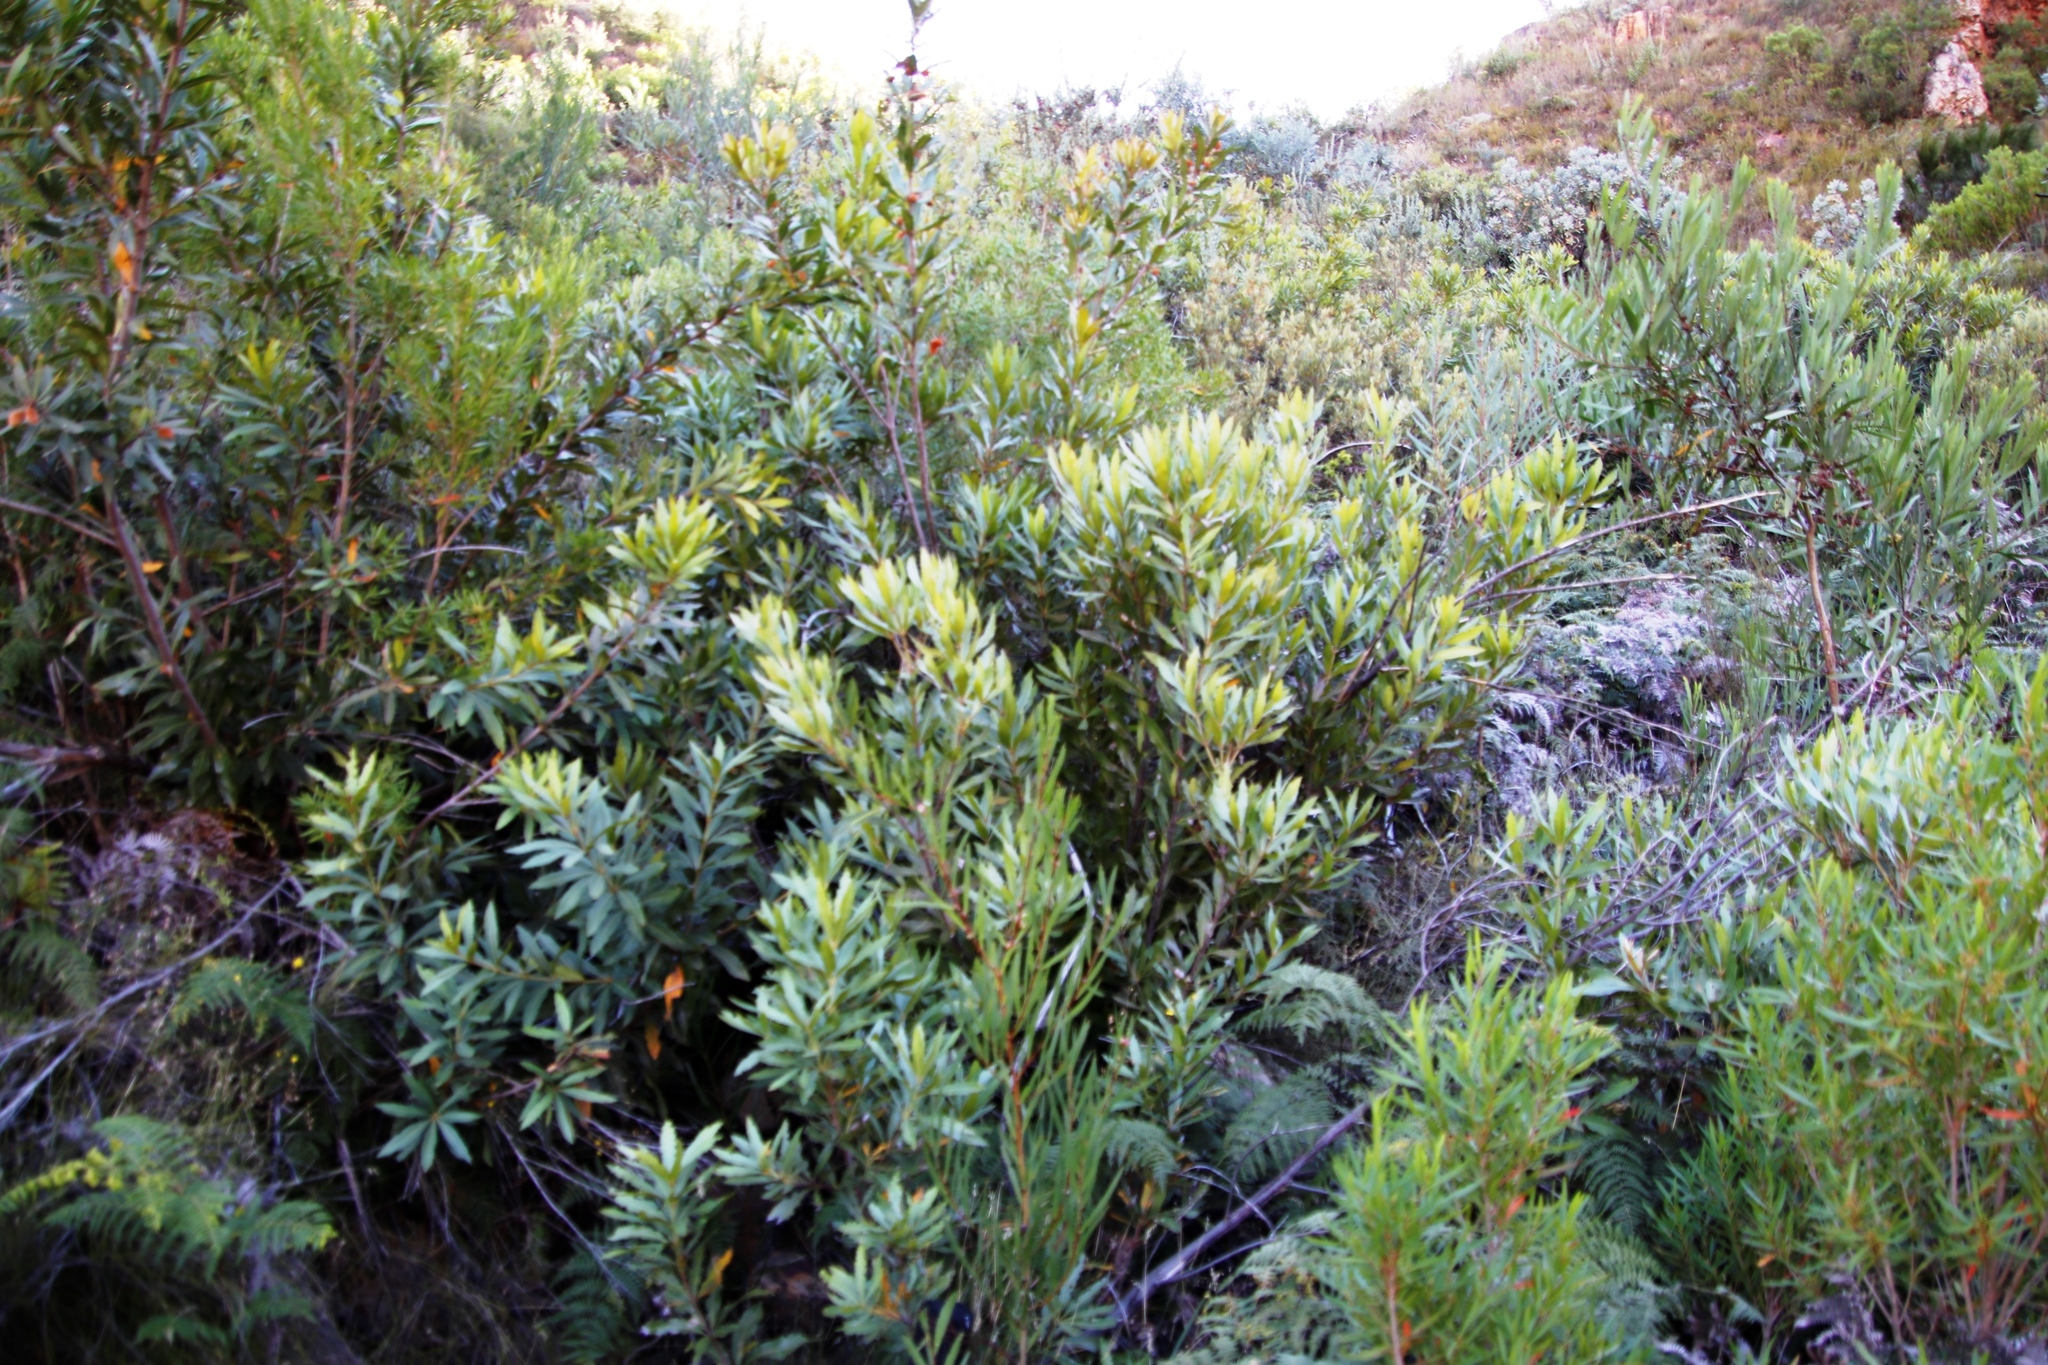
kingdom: Plantae
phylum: Tracheophyta
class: Magnoliopsida
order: Proteales
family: Proteaceae
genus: Brabejum
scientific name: Brabejum stellatifolium
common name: Wild almond
